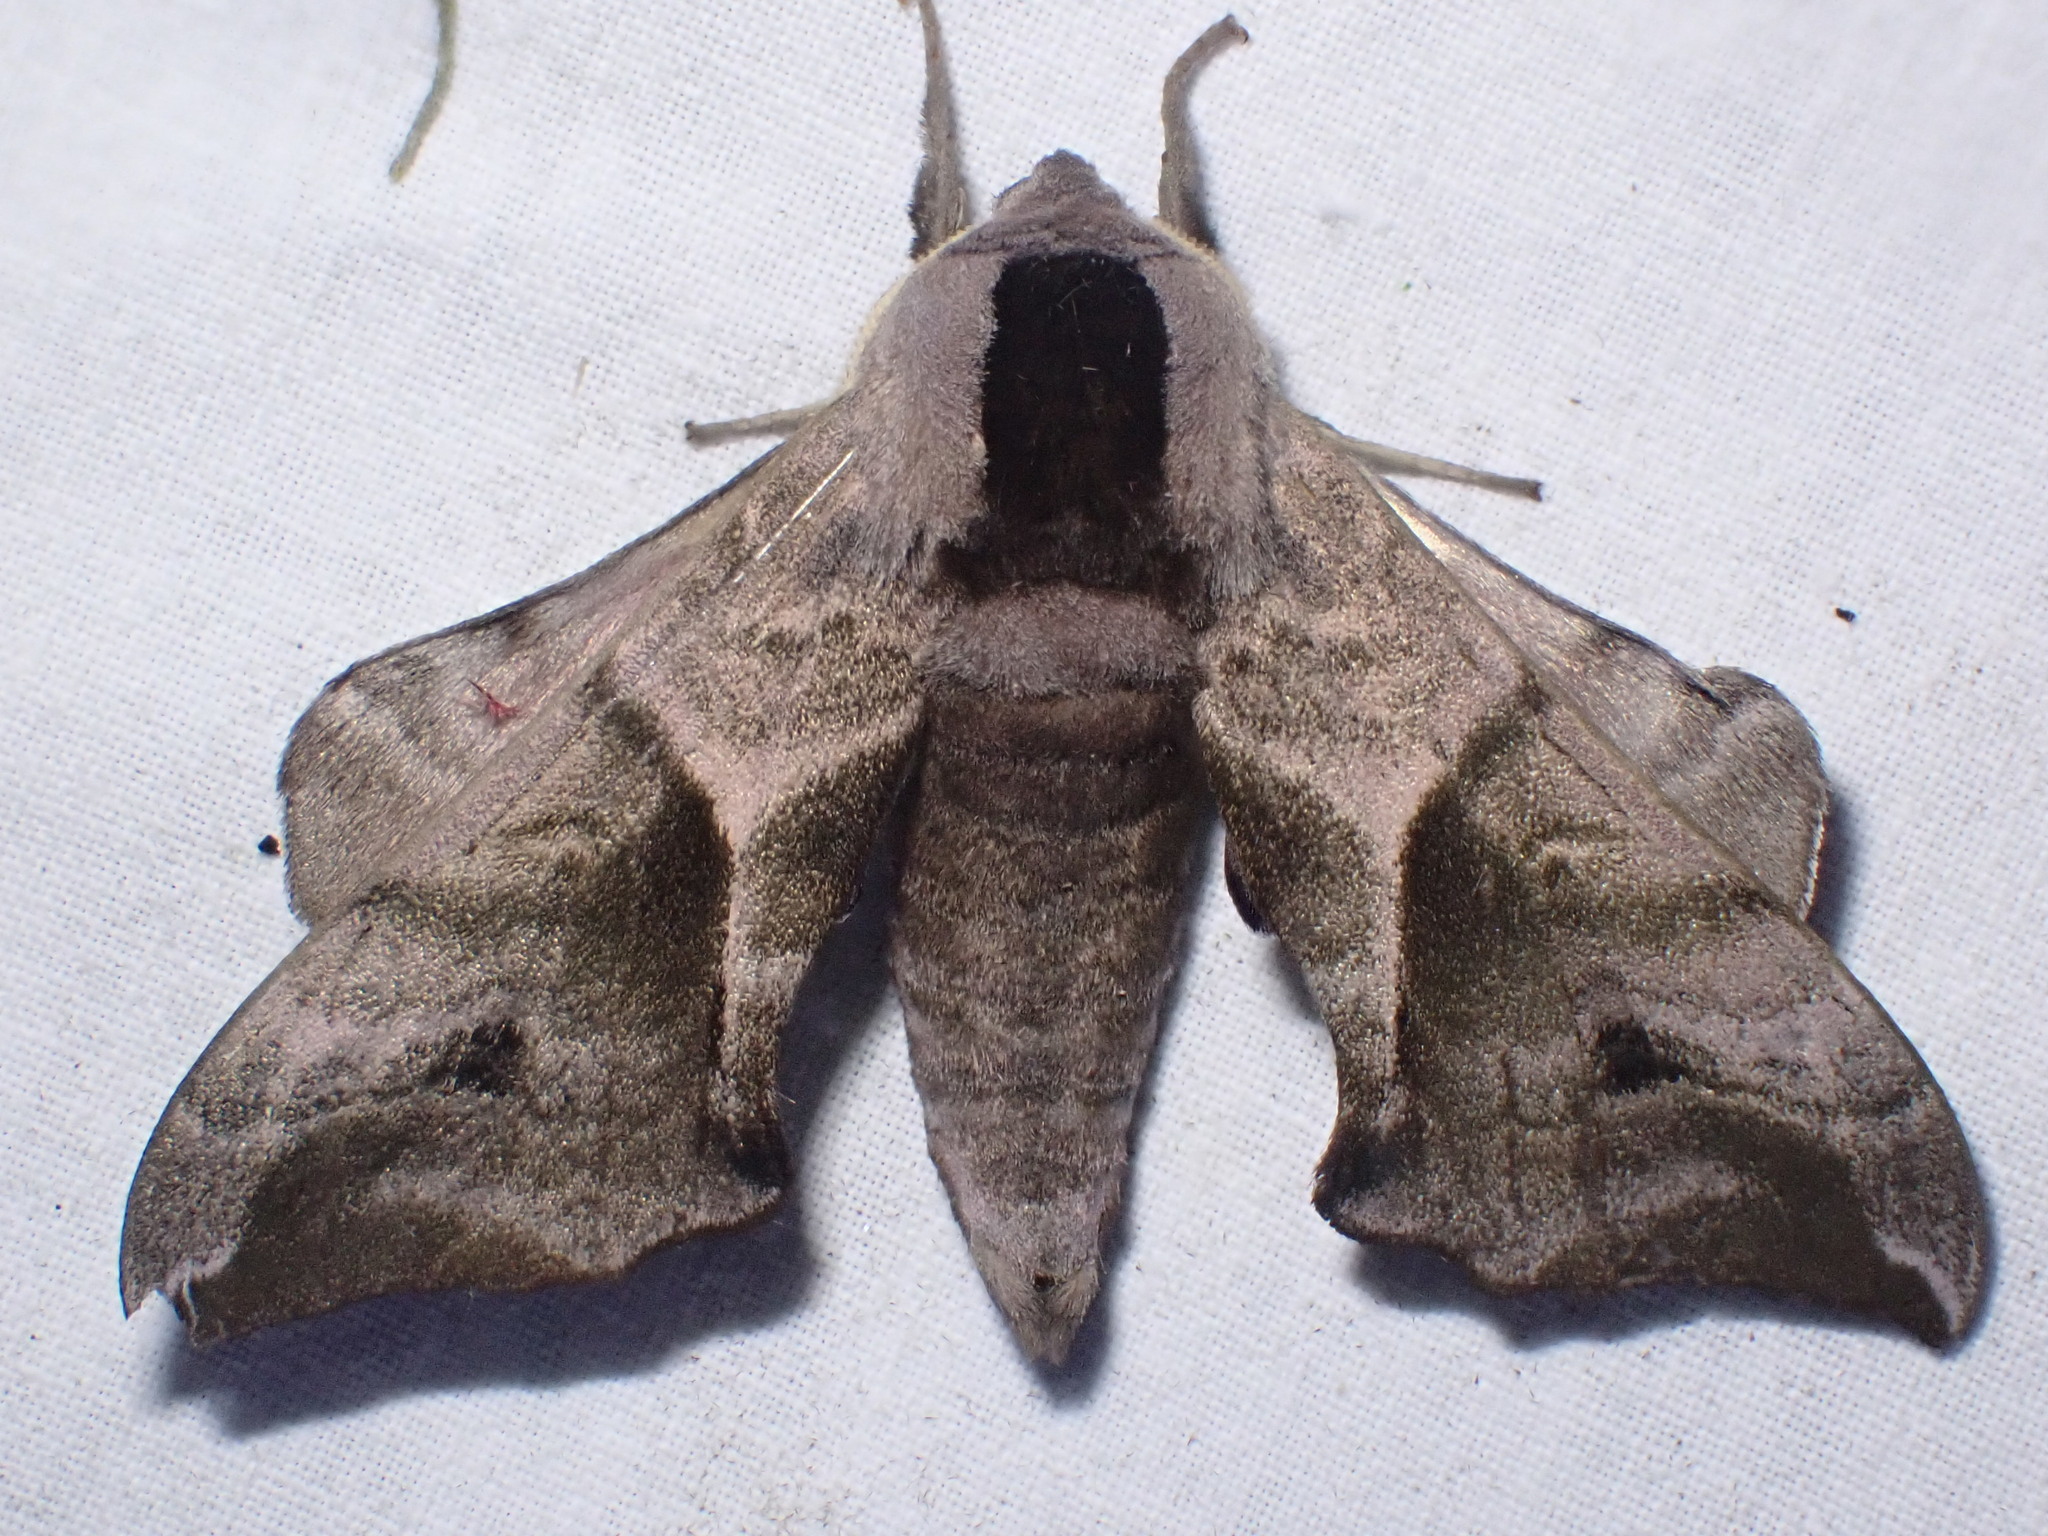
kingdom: Animalia
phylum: Arthropoda
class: Insecta
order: Lepidoptera
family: Sphingidae
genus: Smerinthus
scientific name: Smerinthus ocellata
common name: Eyed hawk-moth
